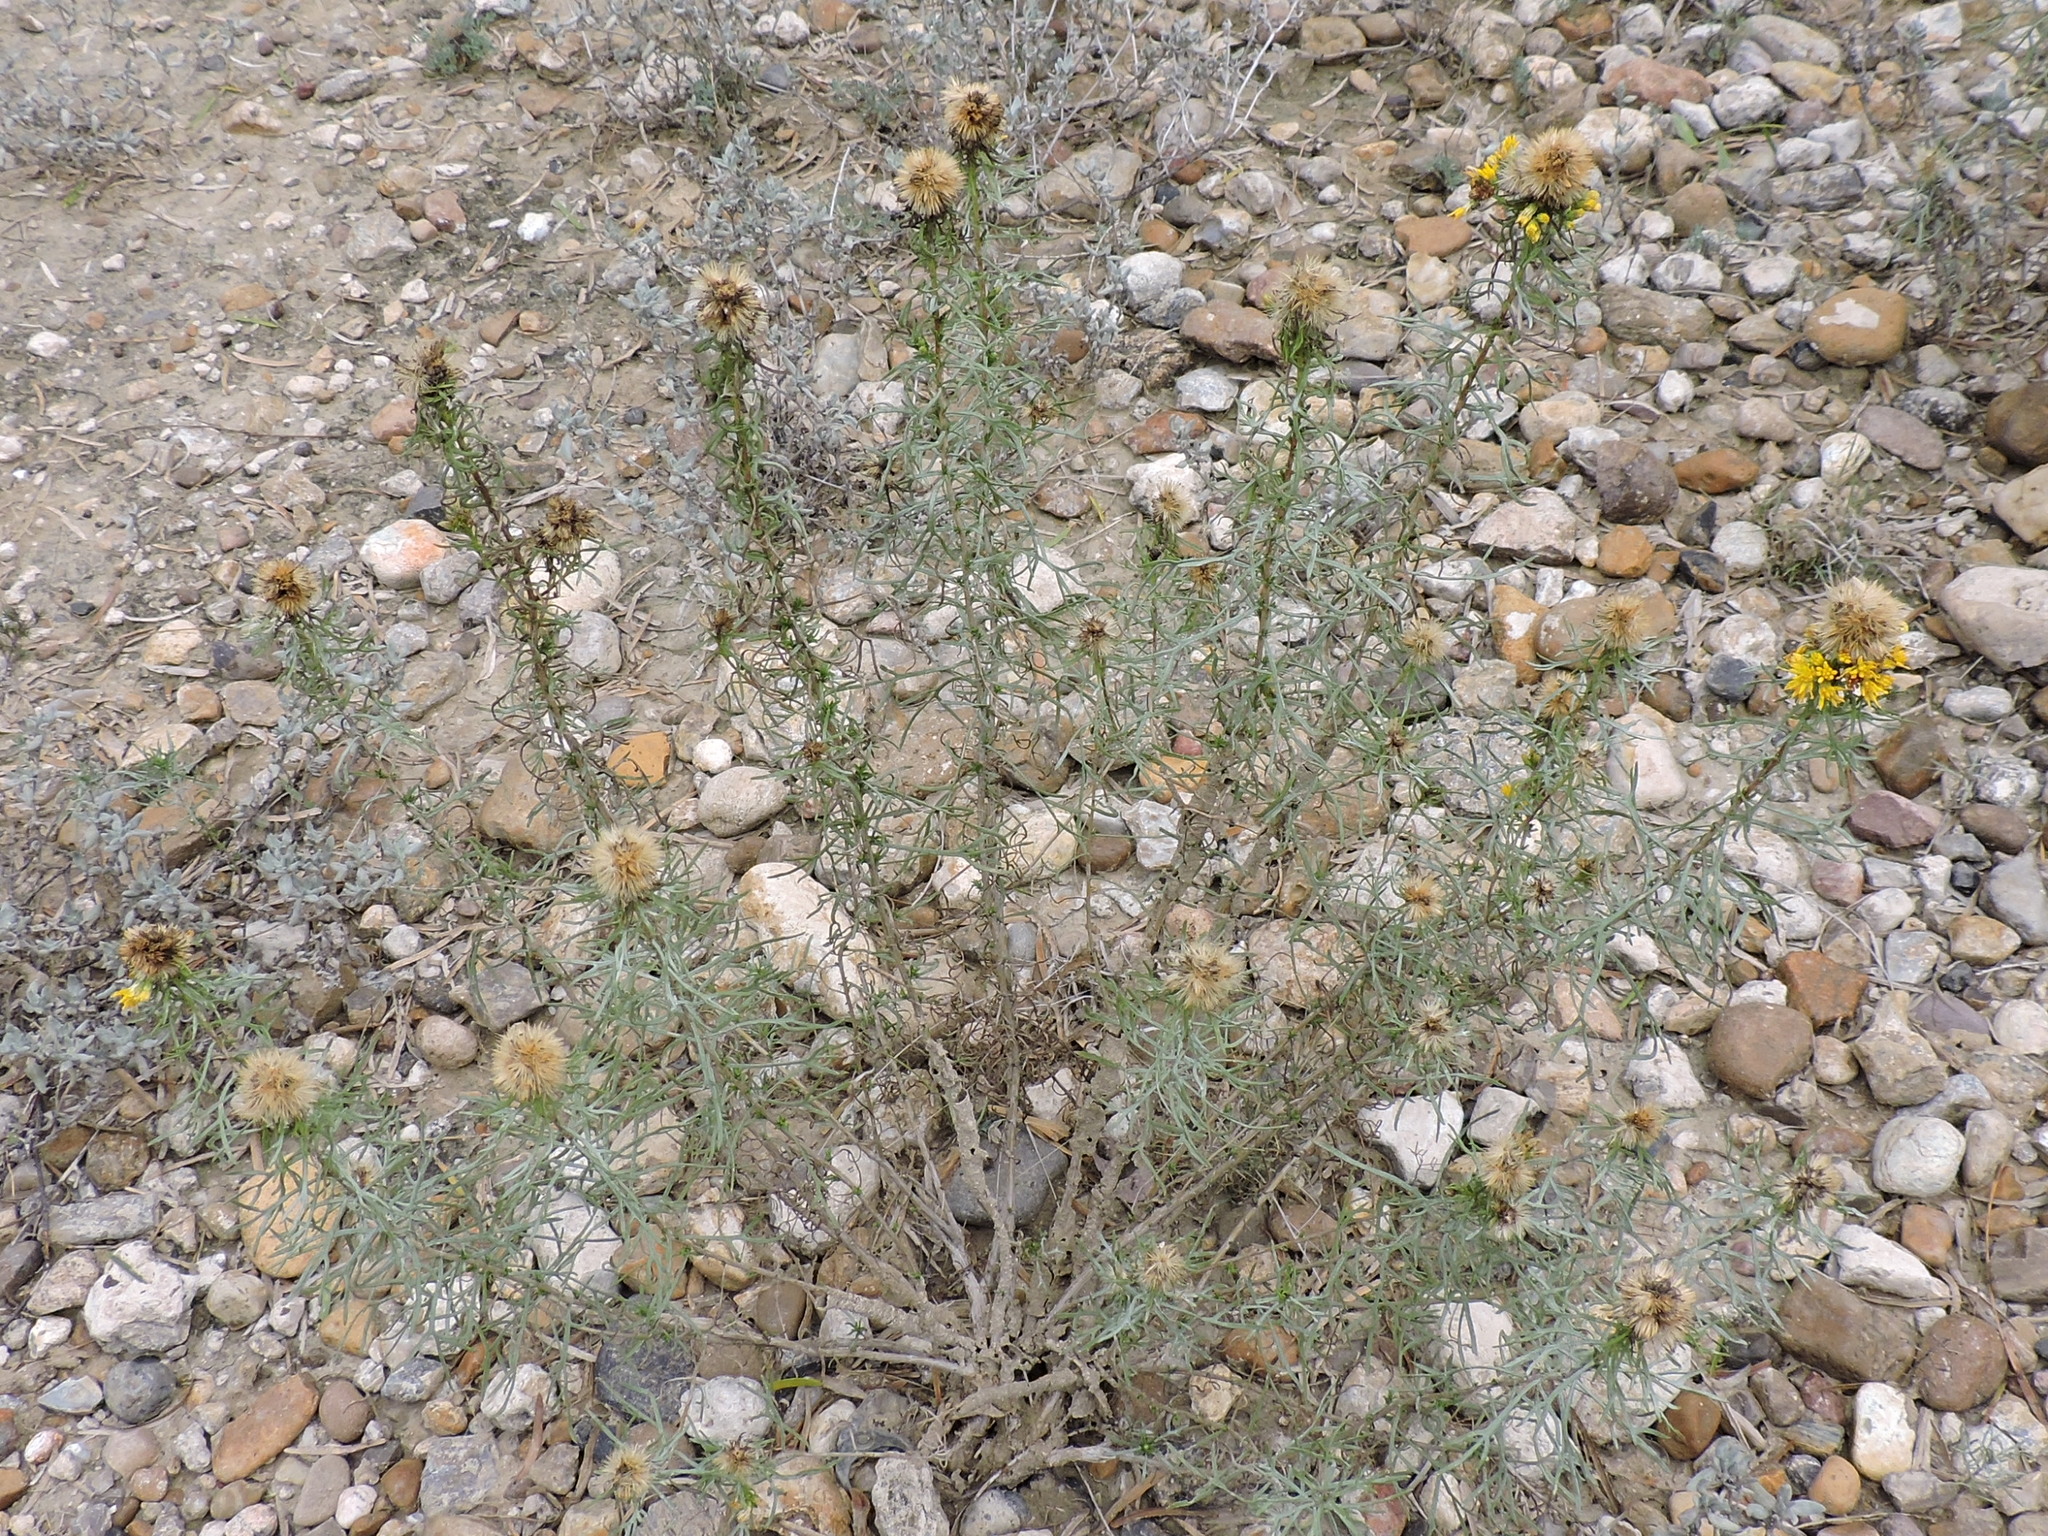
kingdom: Plantae
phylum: Tracheophyta
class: Magnoliopsida
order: Asterales
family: Asteraceae
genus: Isocoma
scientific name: Isocoma coronopifolia
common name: Common jimmyweed
